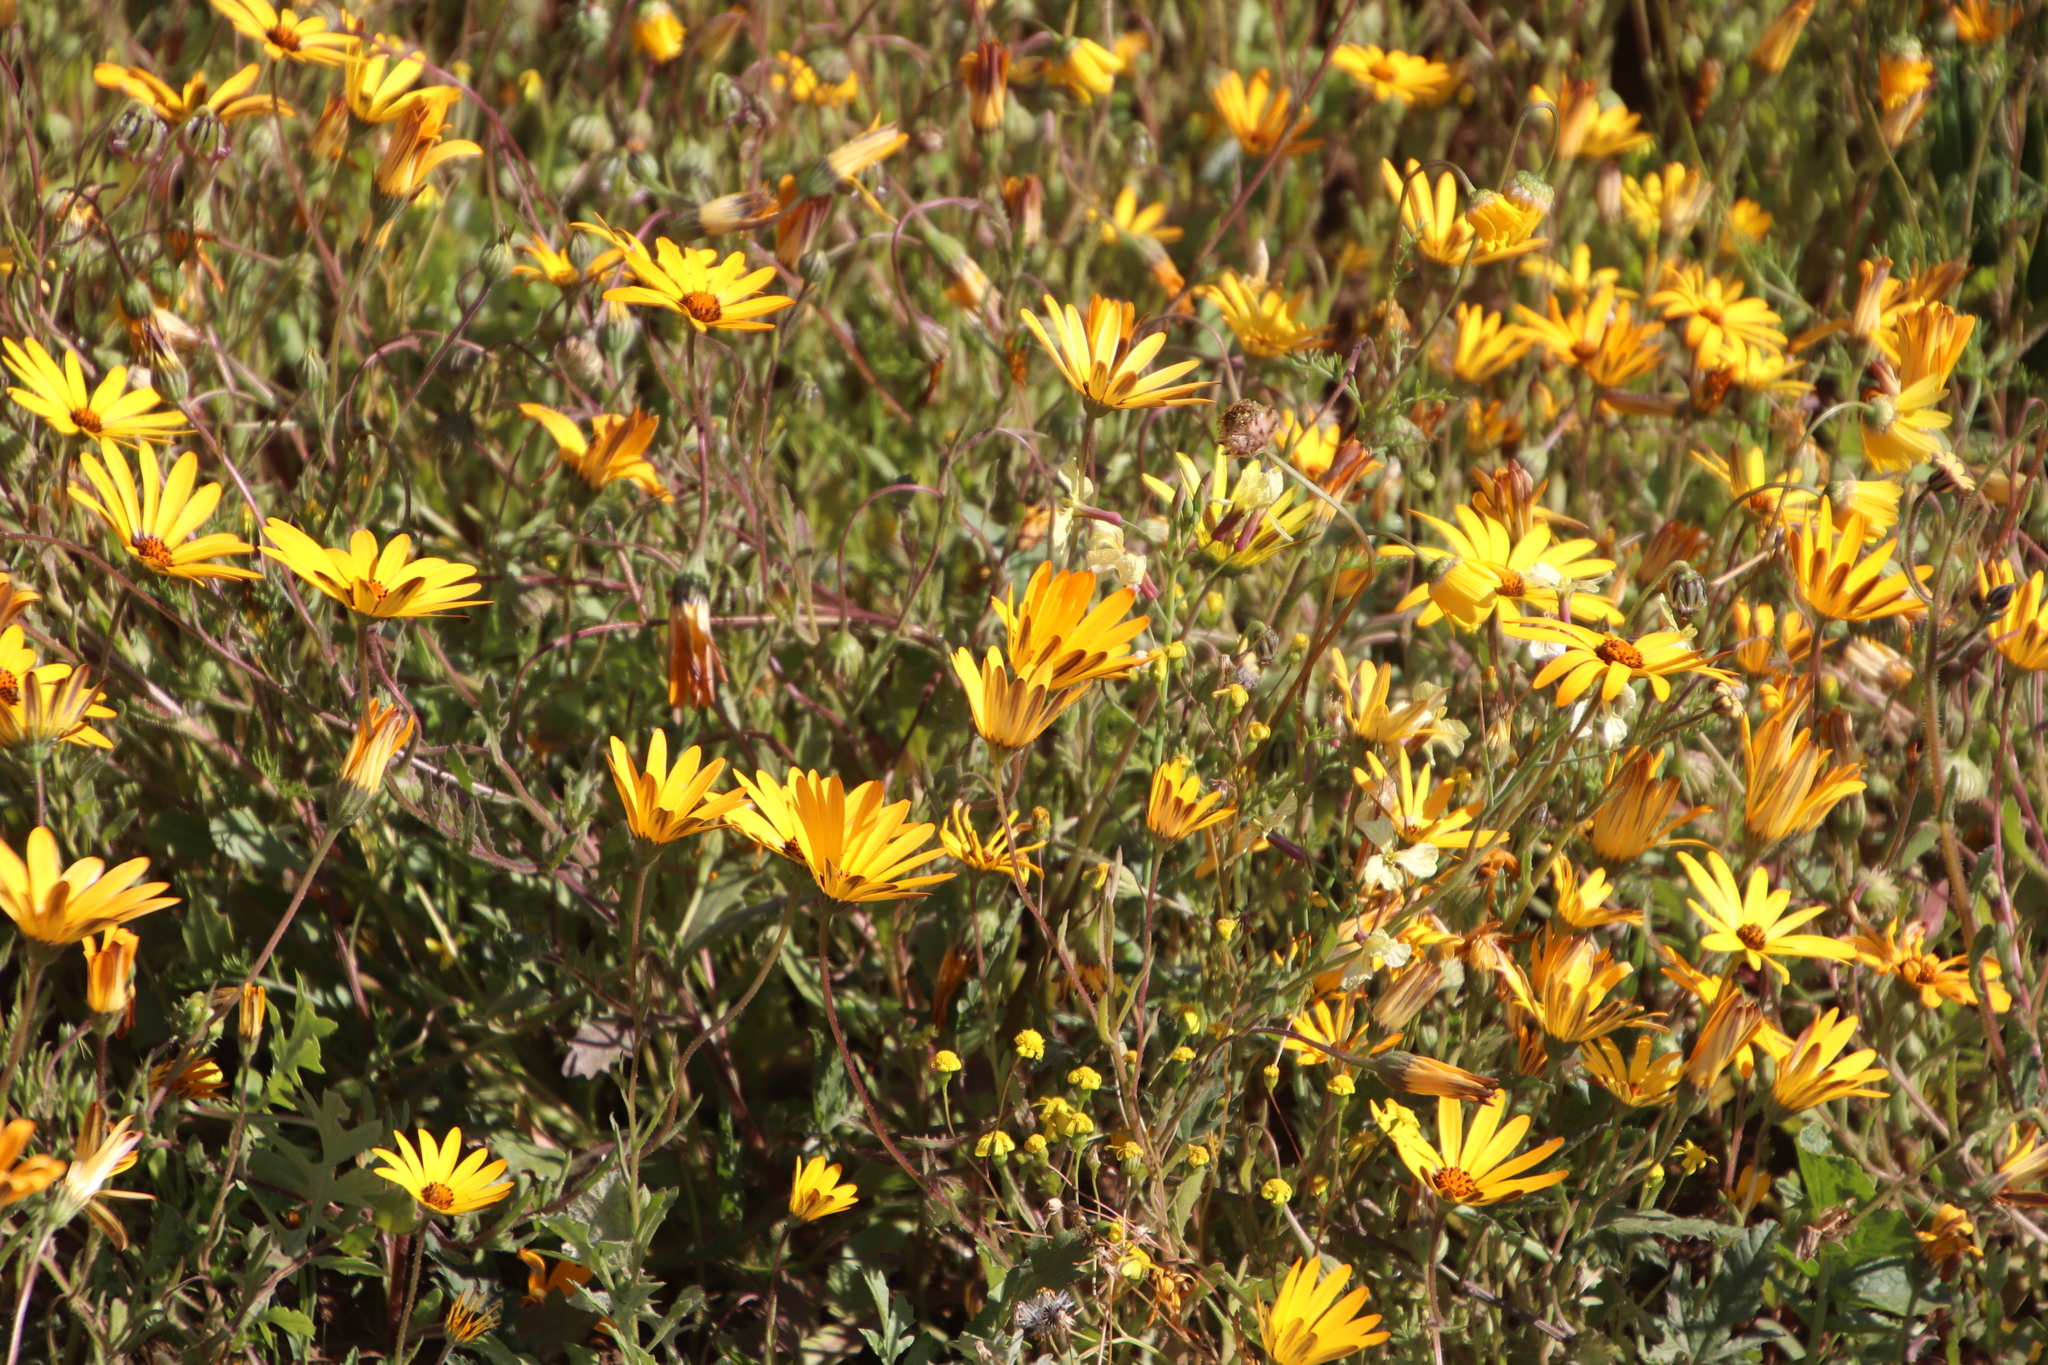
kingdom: Plantae
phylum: Tracheophyta
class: Magnoliopsida
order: Asterales
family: Asteraceae
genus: Dimorphotheca
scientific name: Dimorphotheca sinuata
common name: Glandular cape marigold
